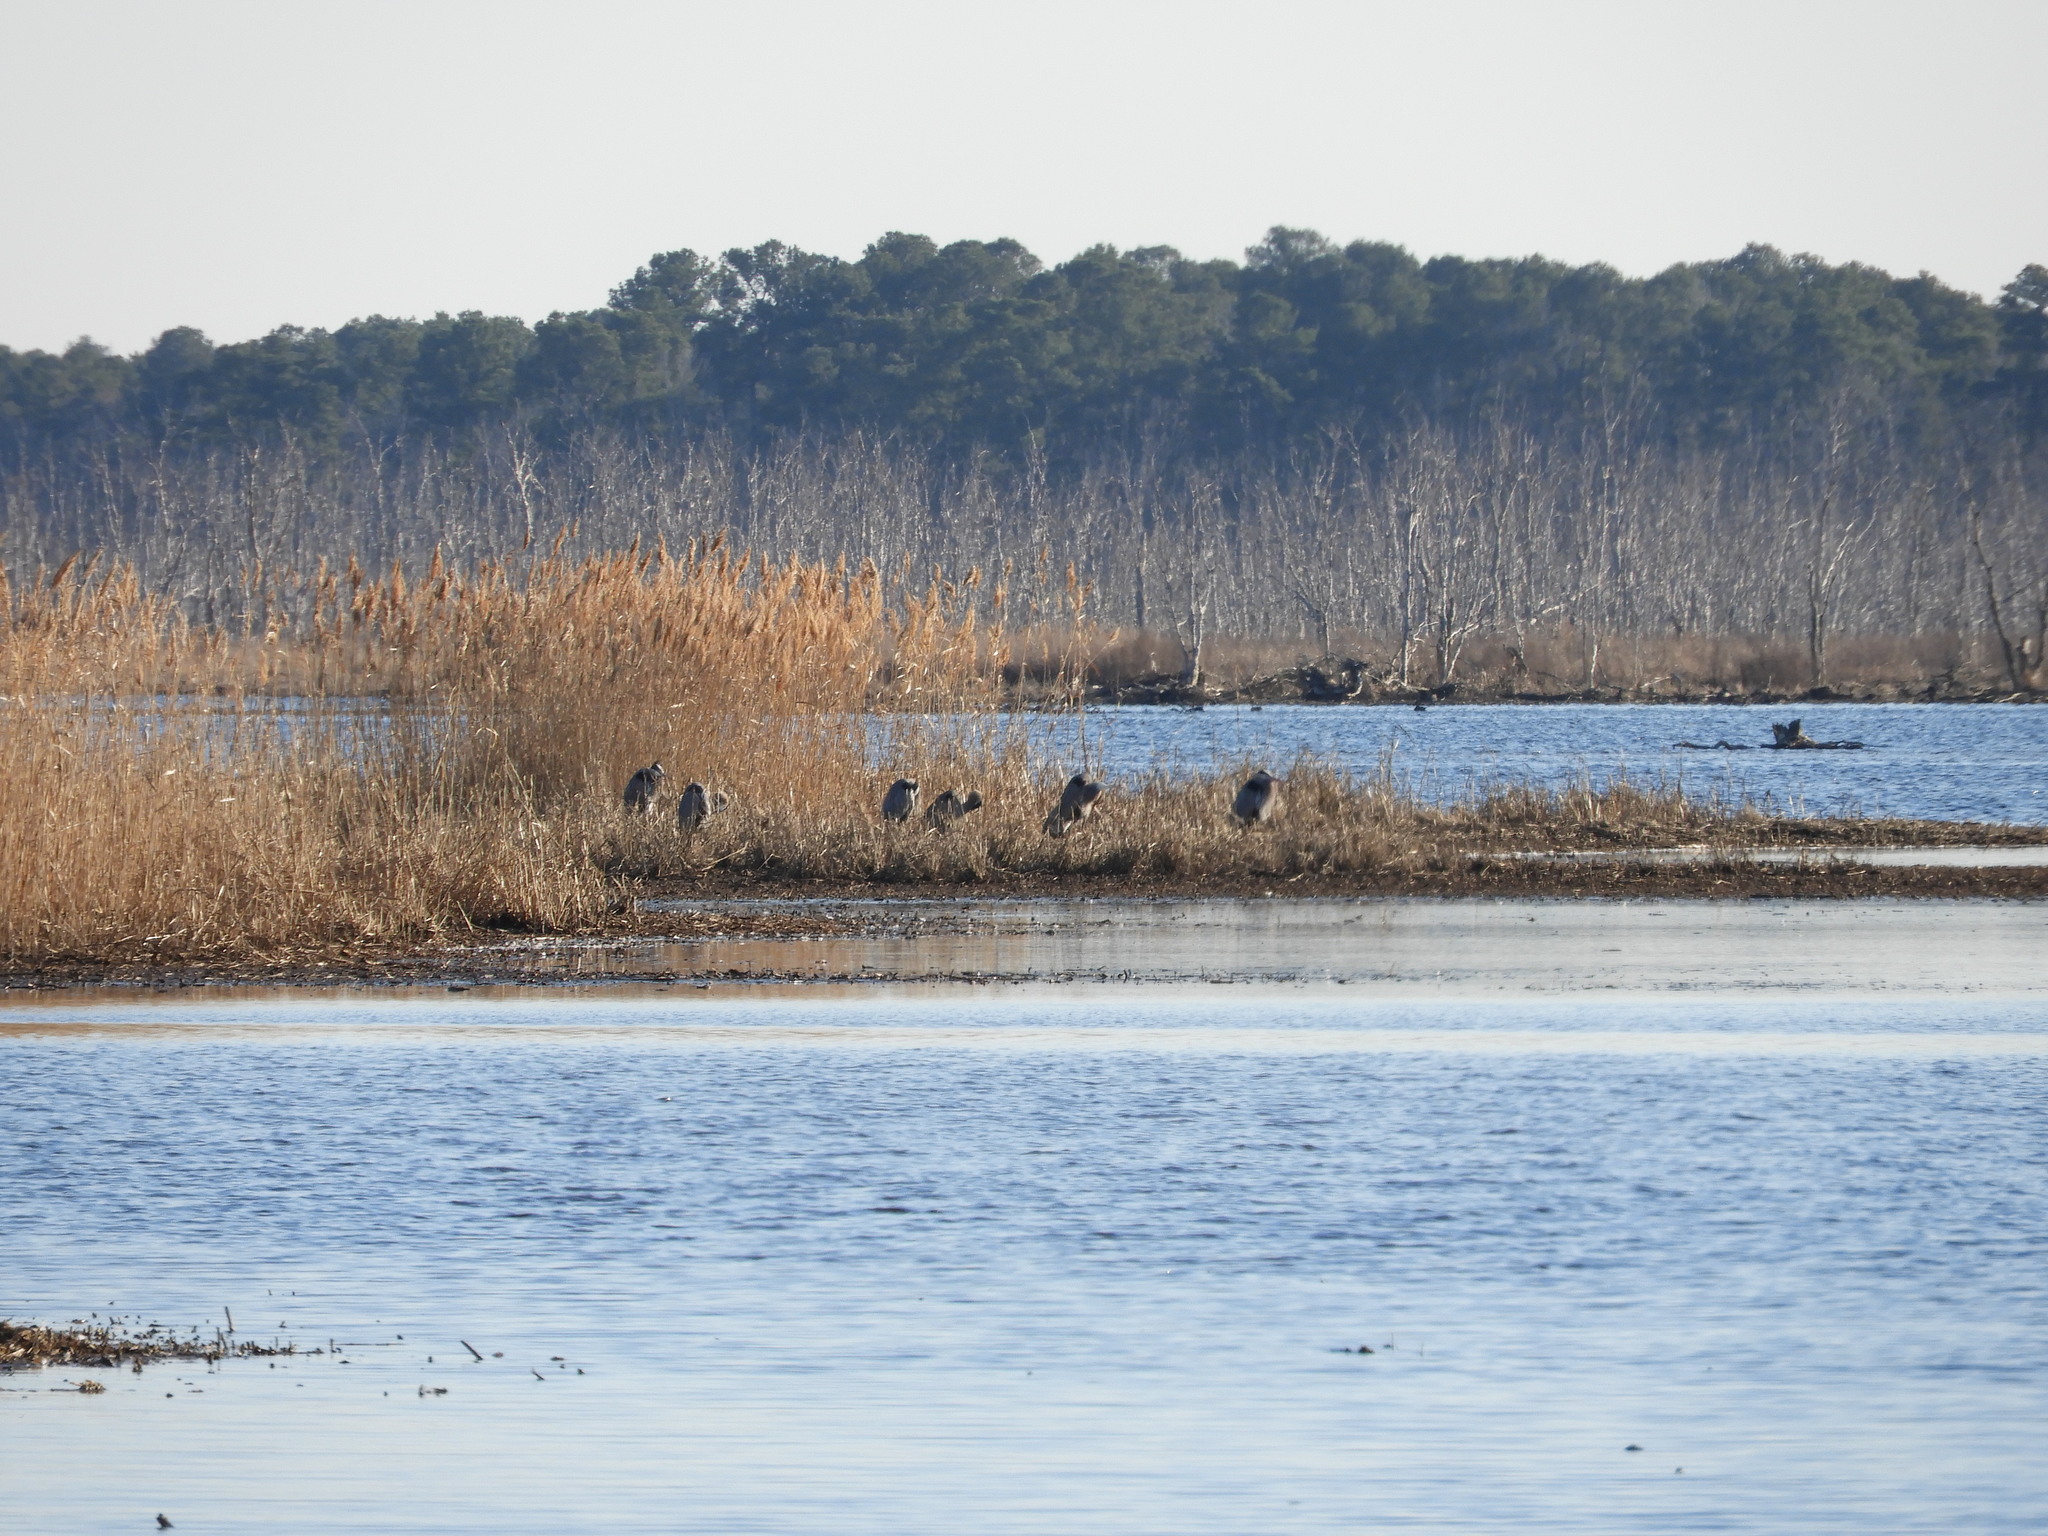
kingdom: Animalia
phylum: Chordata
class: Aves
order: Pelecaniformes
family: Ardeidae
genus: Ardea
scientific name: Ardea herodias
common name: Great blue heron
